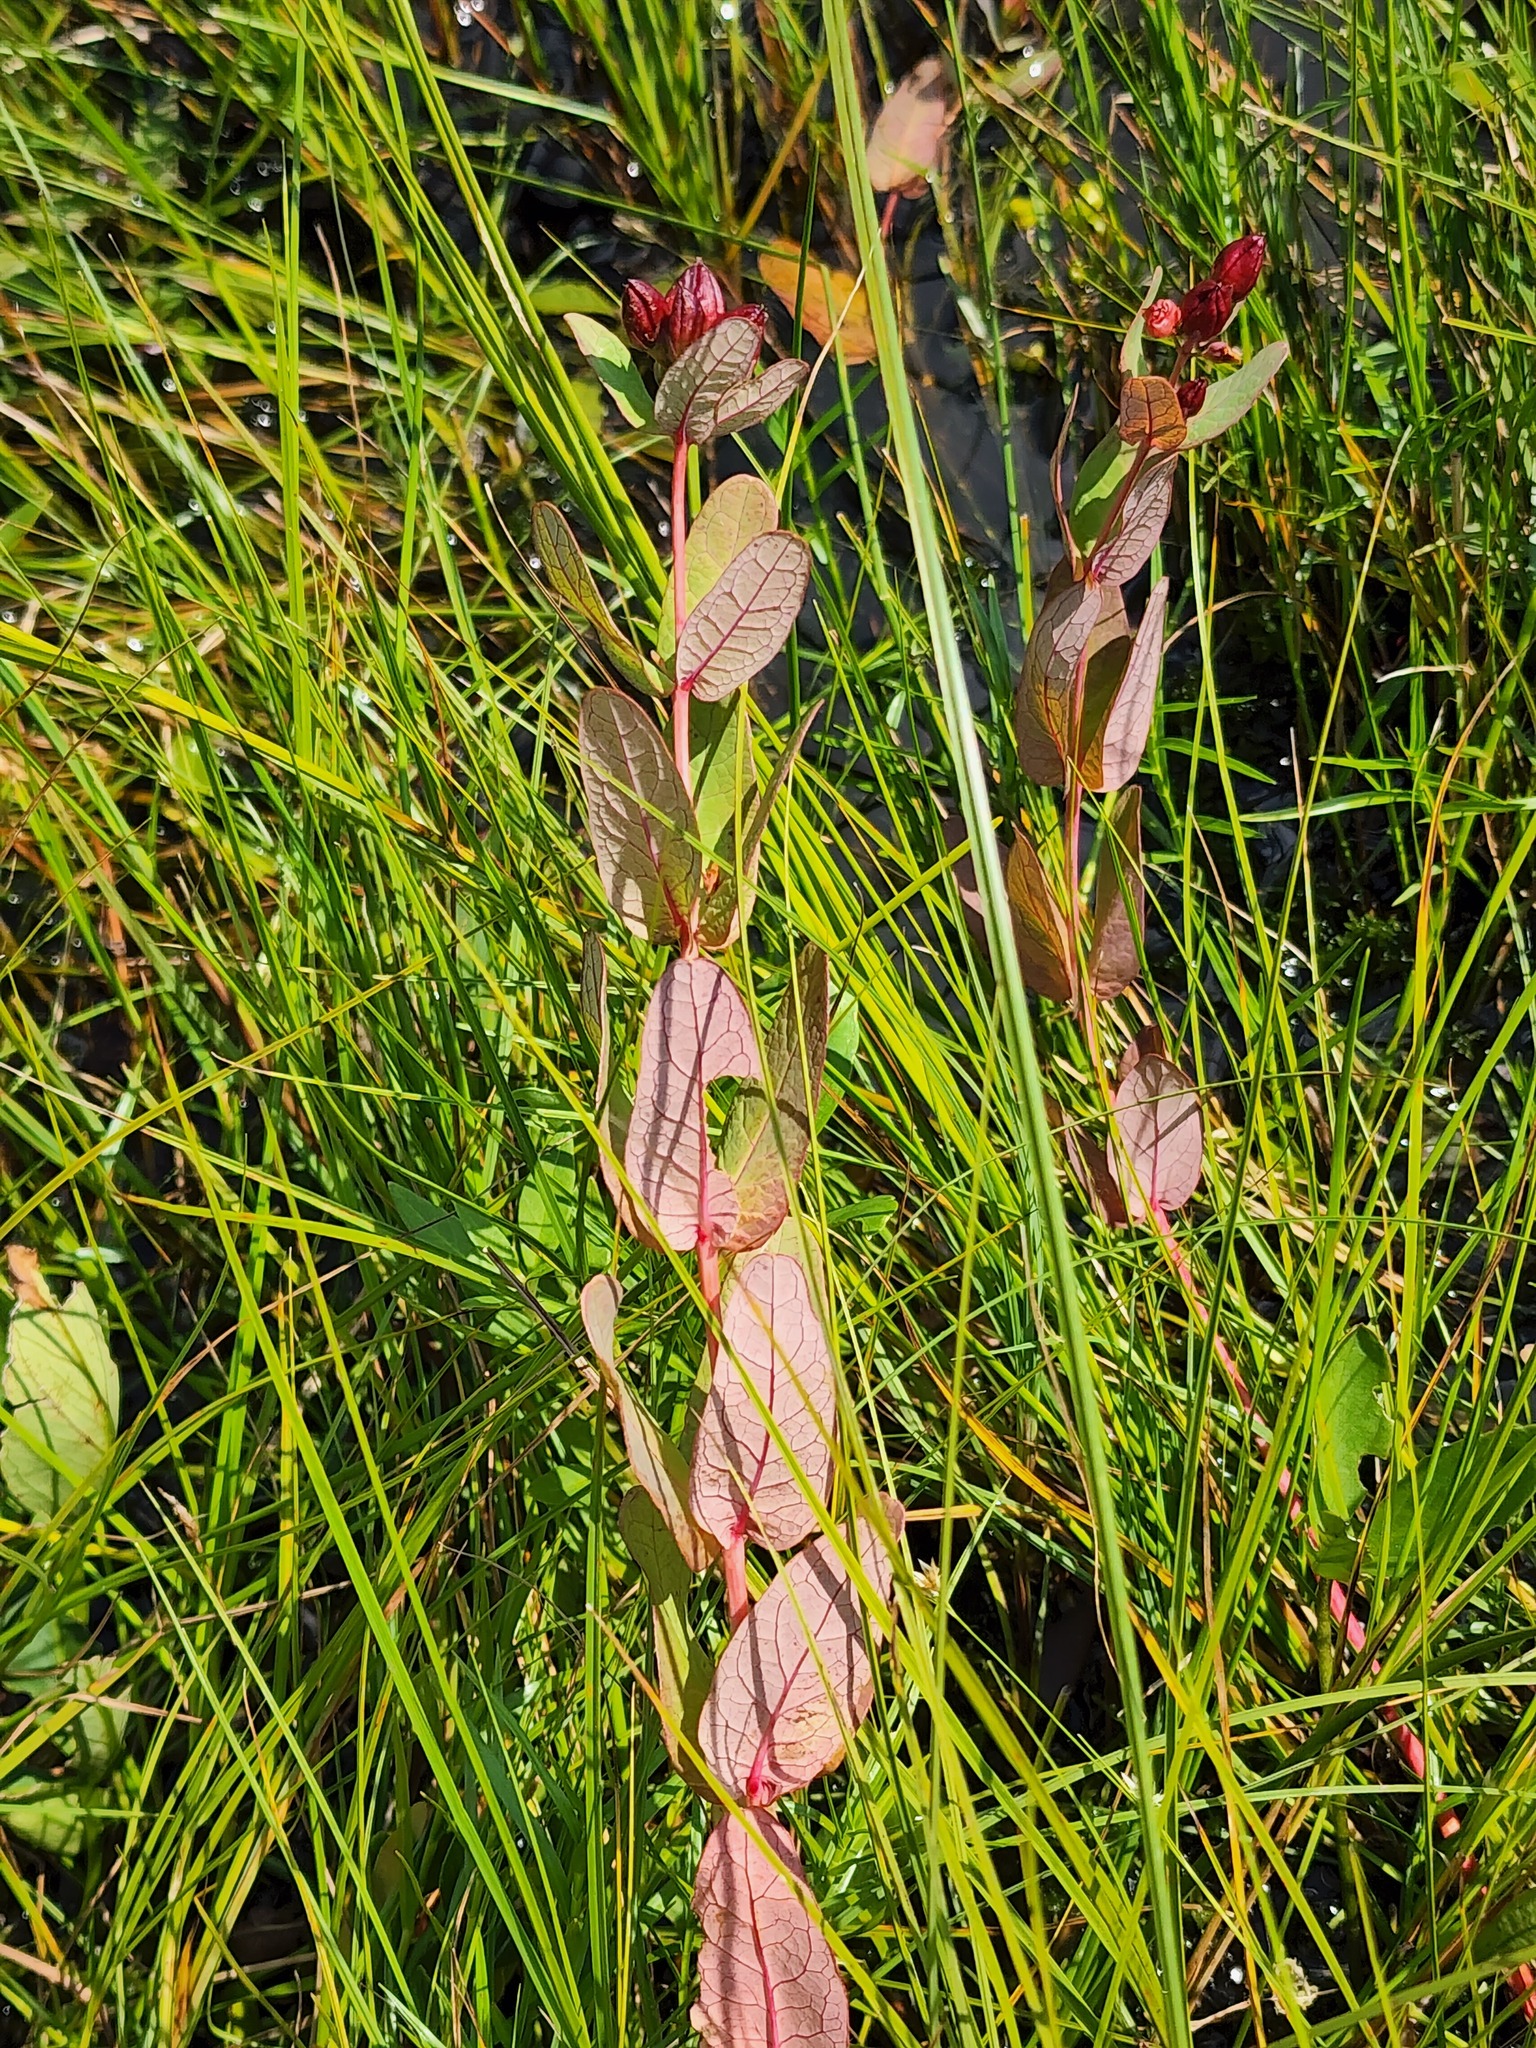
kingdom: Plantae
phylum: Tracheophyta
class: Magnoliopsida
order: Malpighiales
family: Hypericaceae
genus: Triadenum
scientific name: Triadenum fraseri
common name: Fraser's marsh st. johnswort
